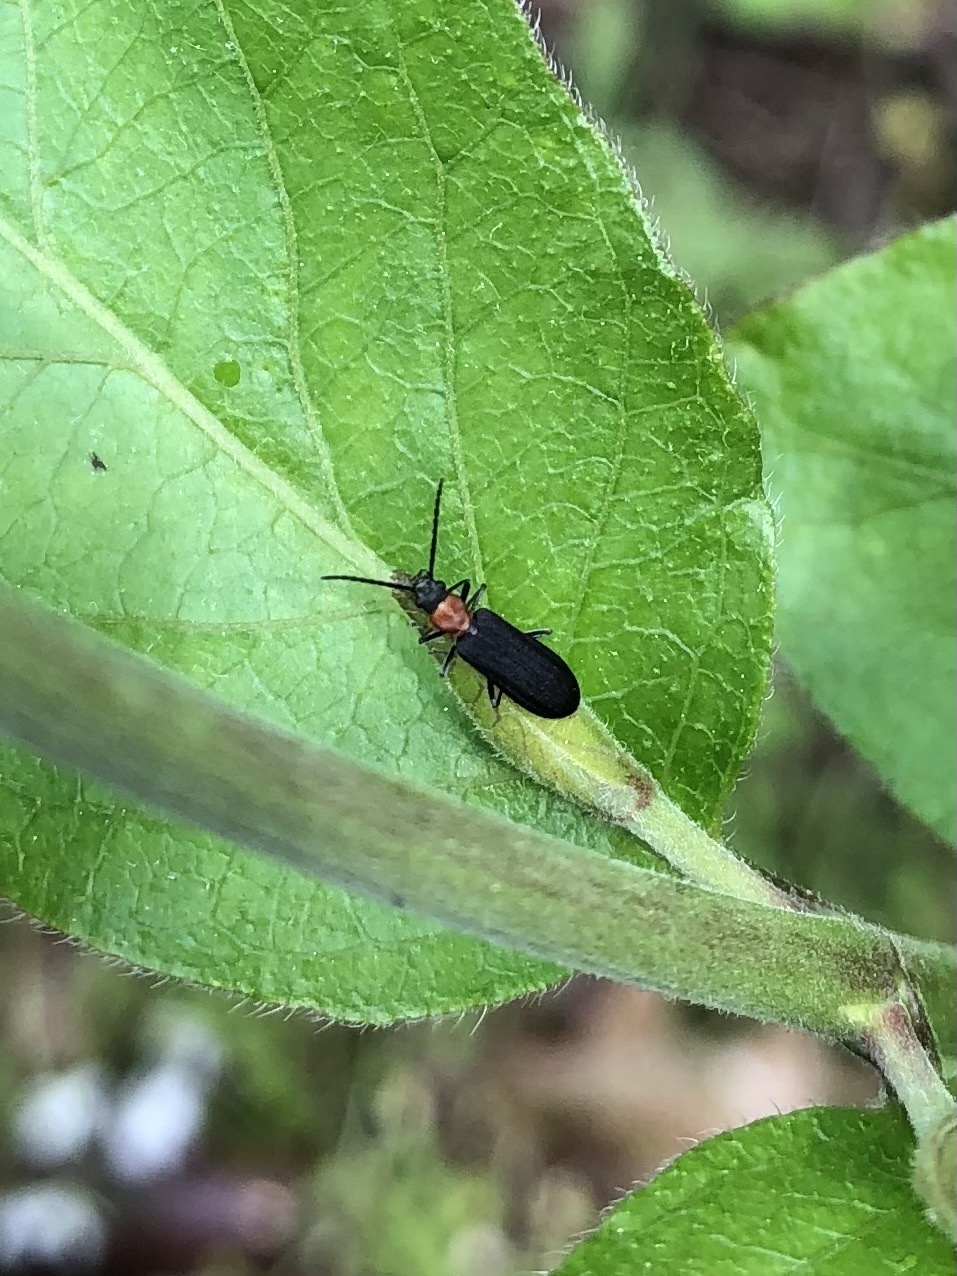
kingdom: Animalia
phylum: Arthropoda
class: Insecta
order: Coleoptera
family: Oedemeridae
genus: Ischnomera
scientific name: Ischnomera
